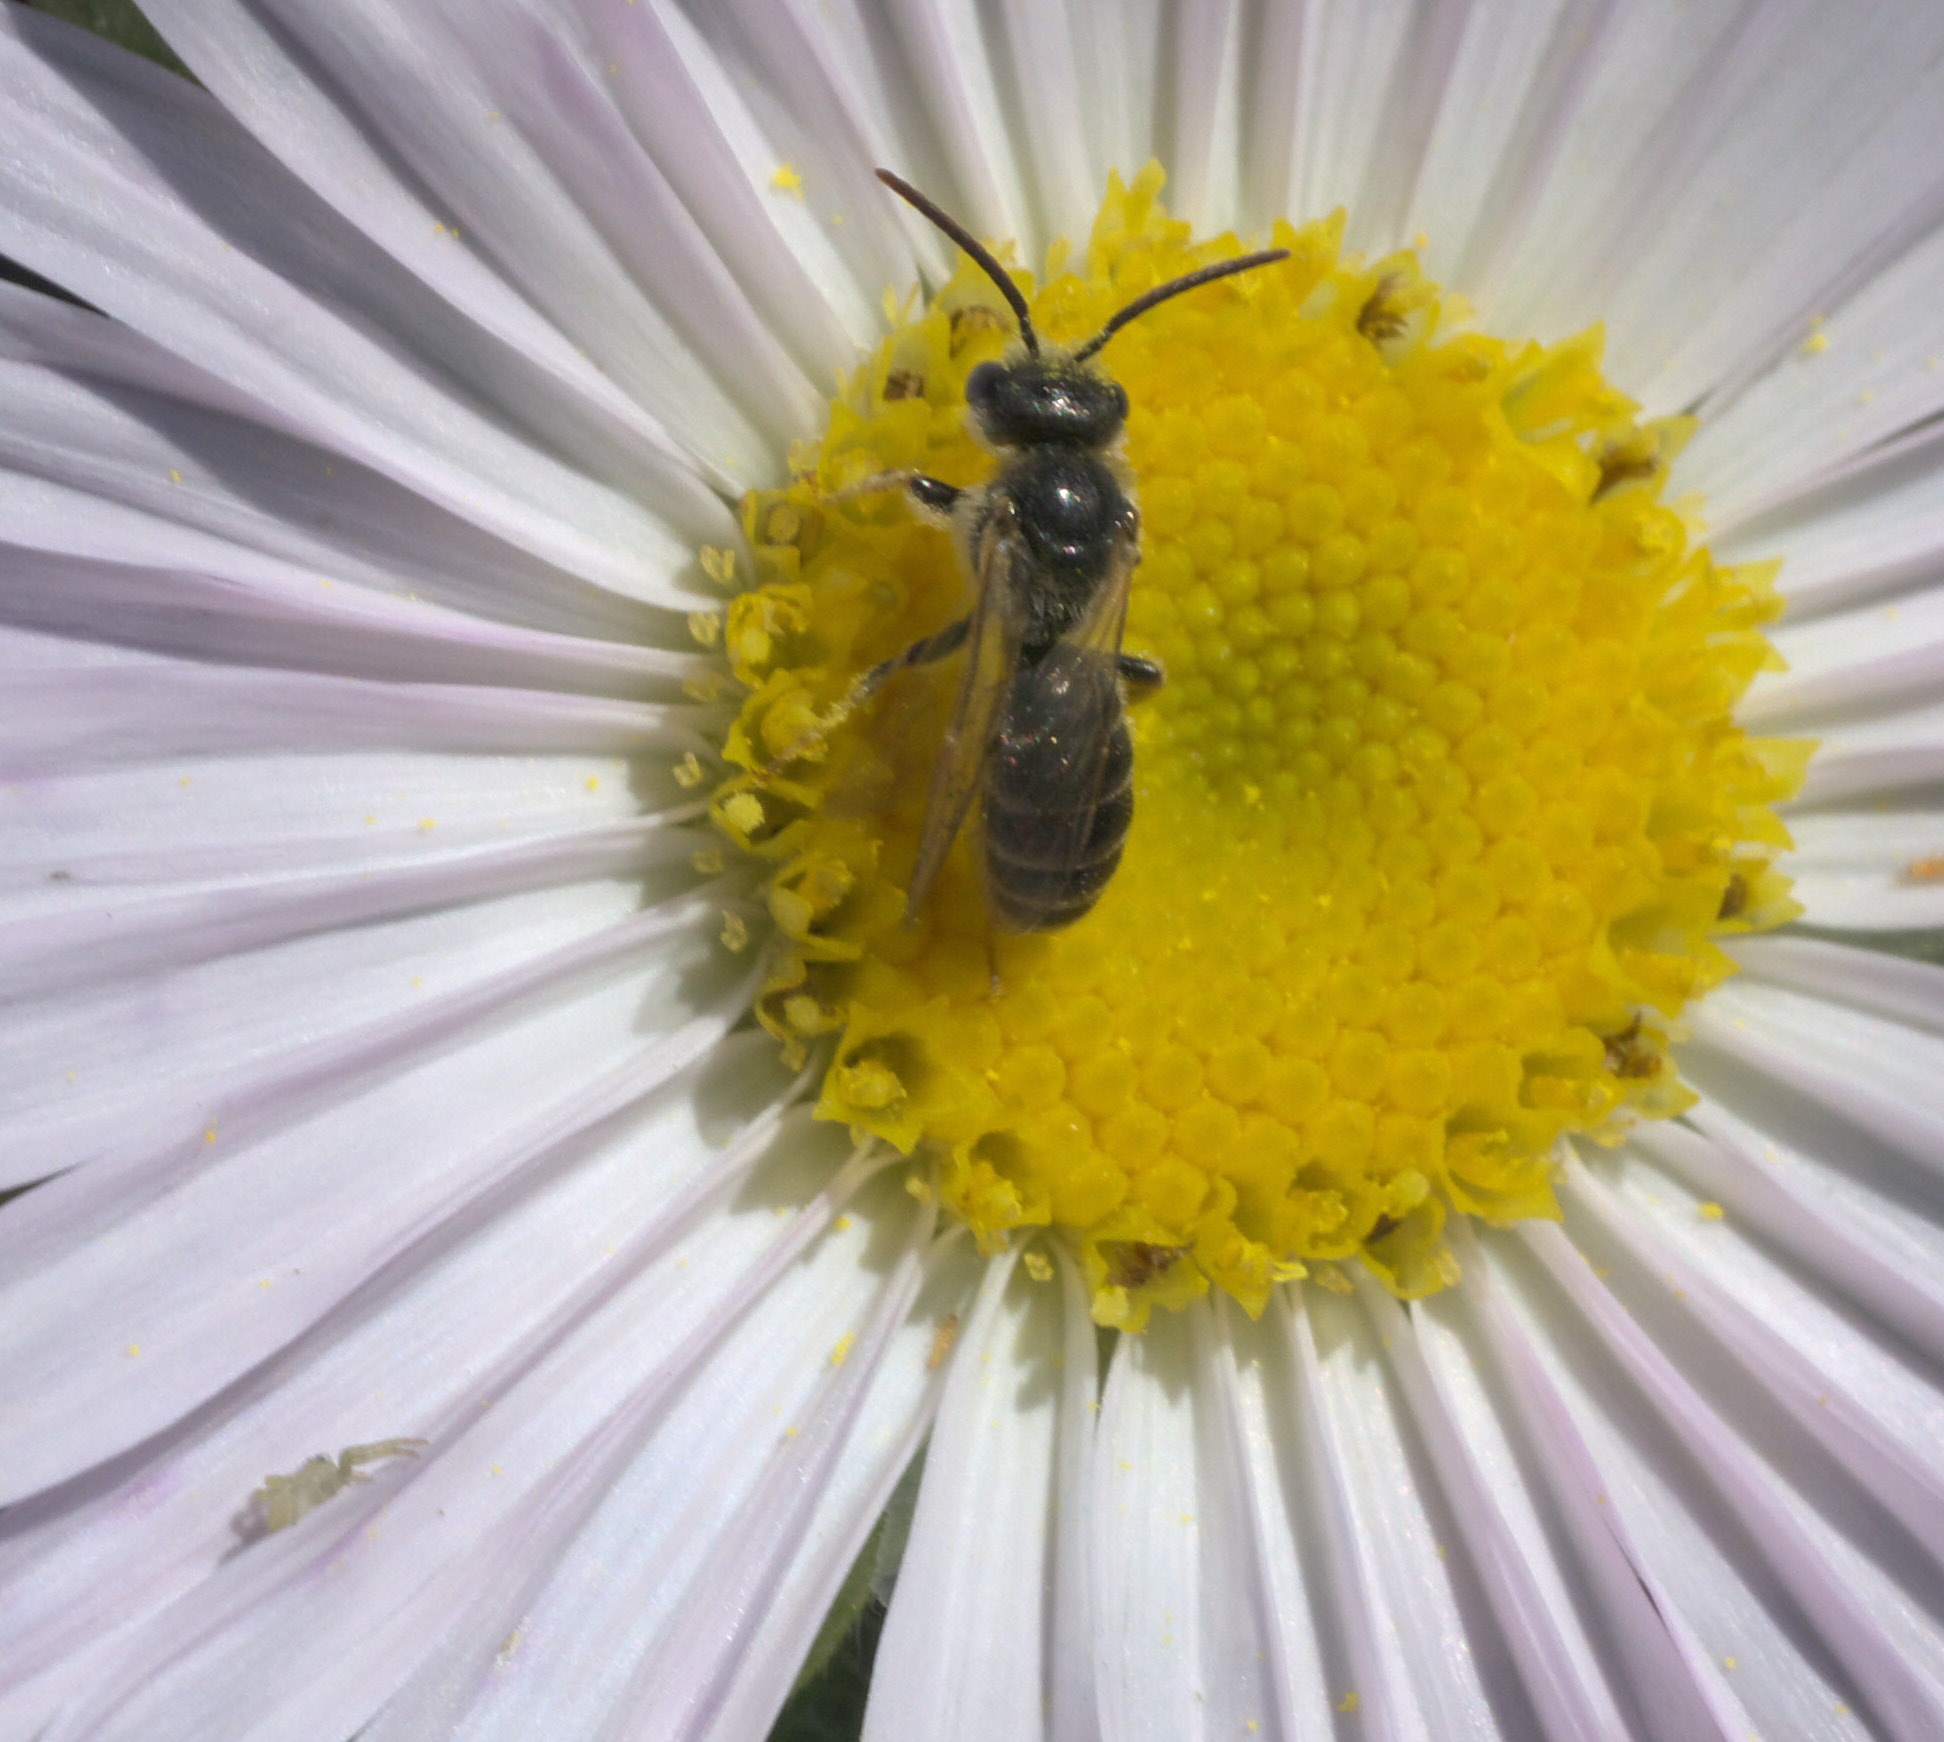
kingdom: Animalia
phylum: Arthropoda
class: Insecta
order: Hymenoptera
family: Halictidae
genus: Halictus
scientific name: Halictus confusus
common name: Southern bronze furrow bee
